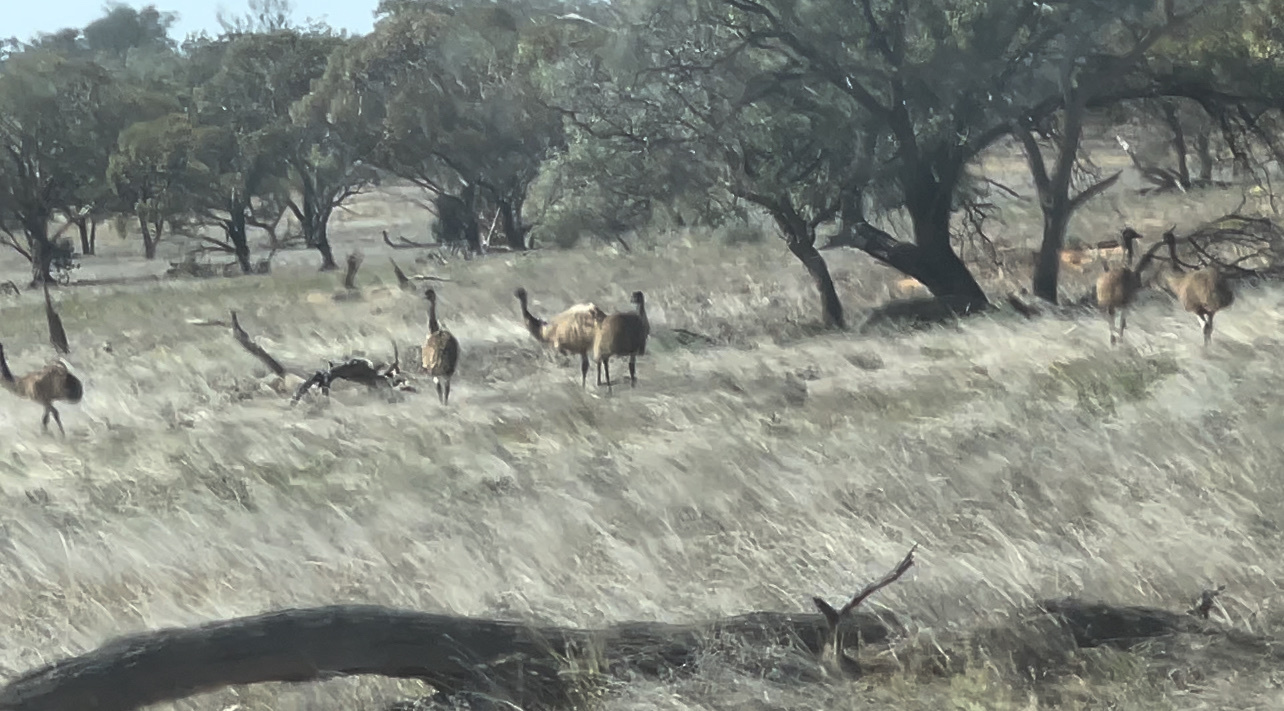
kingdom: Animalia
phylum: Chordata
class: Aves
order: Casuariiformes
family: Dromaiidae
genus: Dromaius
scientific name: Dromaius novaehollandiae
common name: Emu
